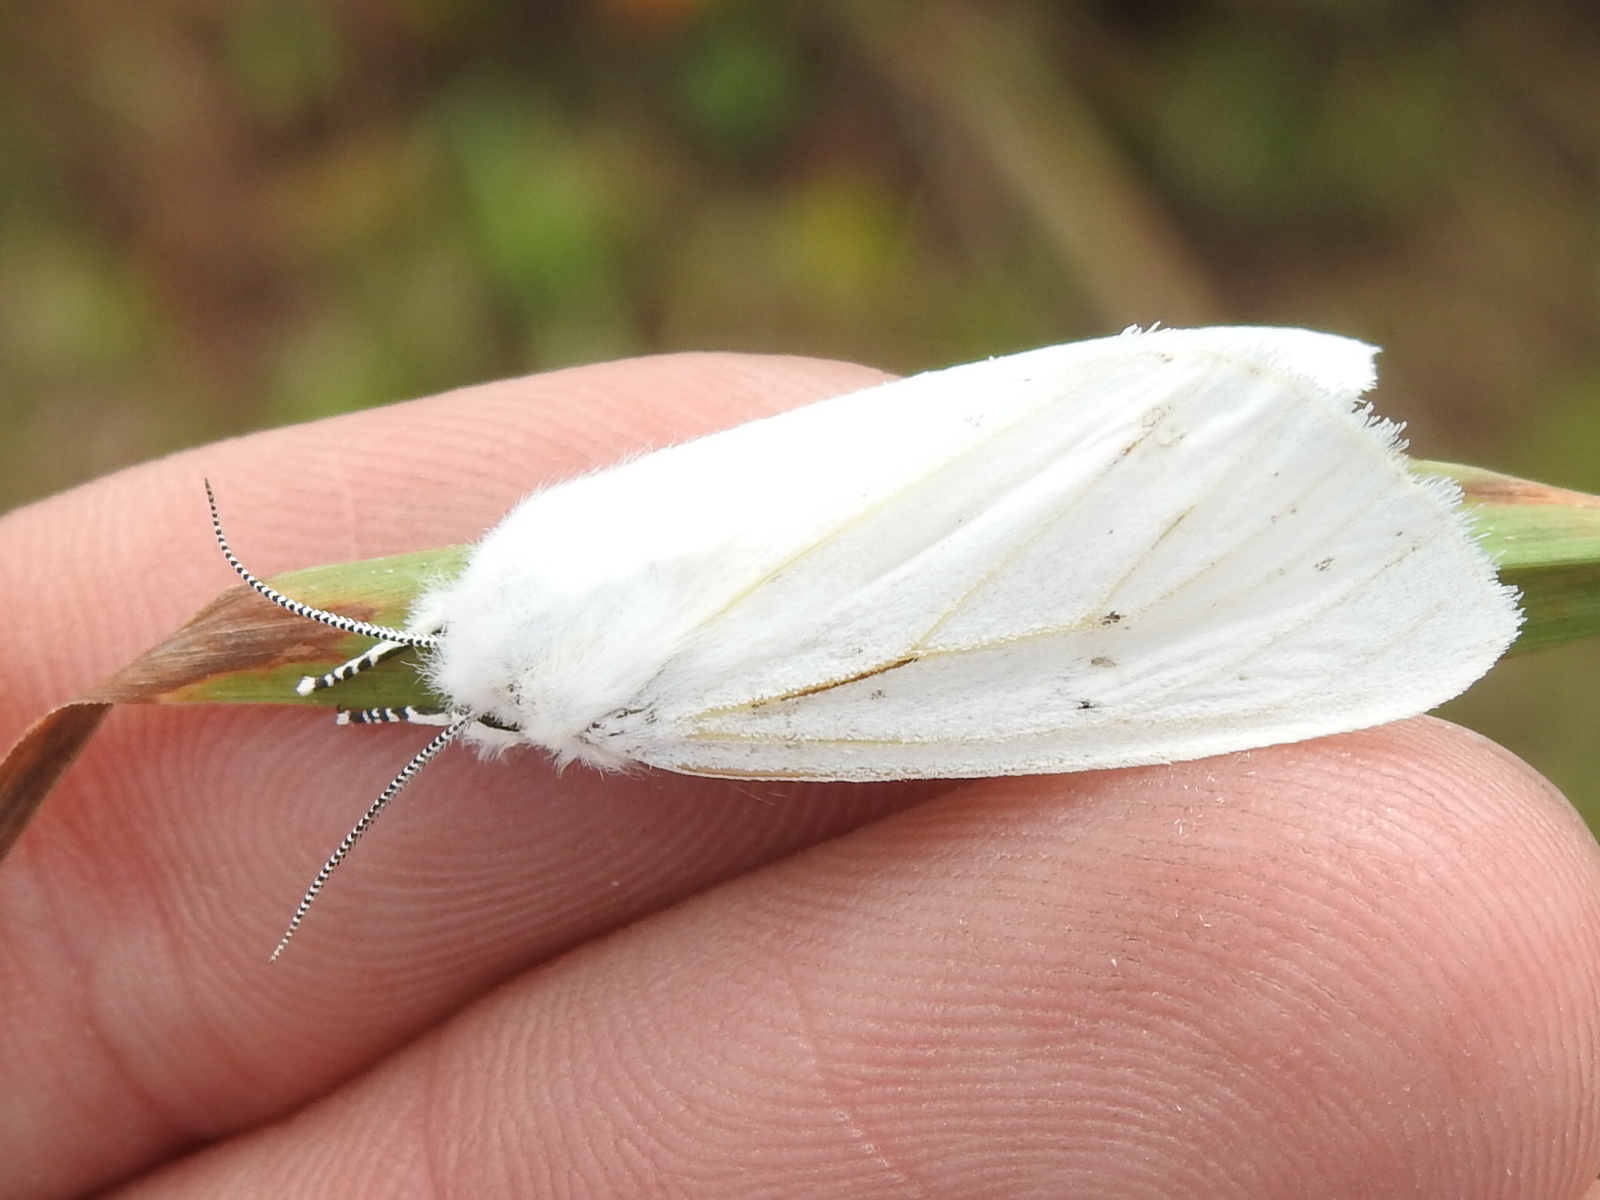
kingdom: Animalia
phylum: Arthropoda
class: Insecta
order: Lepidoptera
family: Erebidae
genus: Spilosoma
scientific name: Spilosoma virginica
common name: Virginia tiger moth
